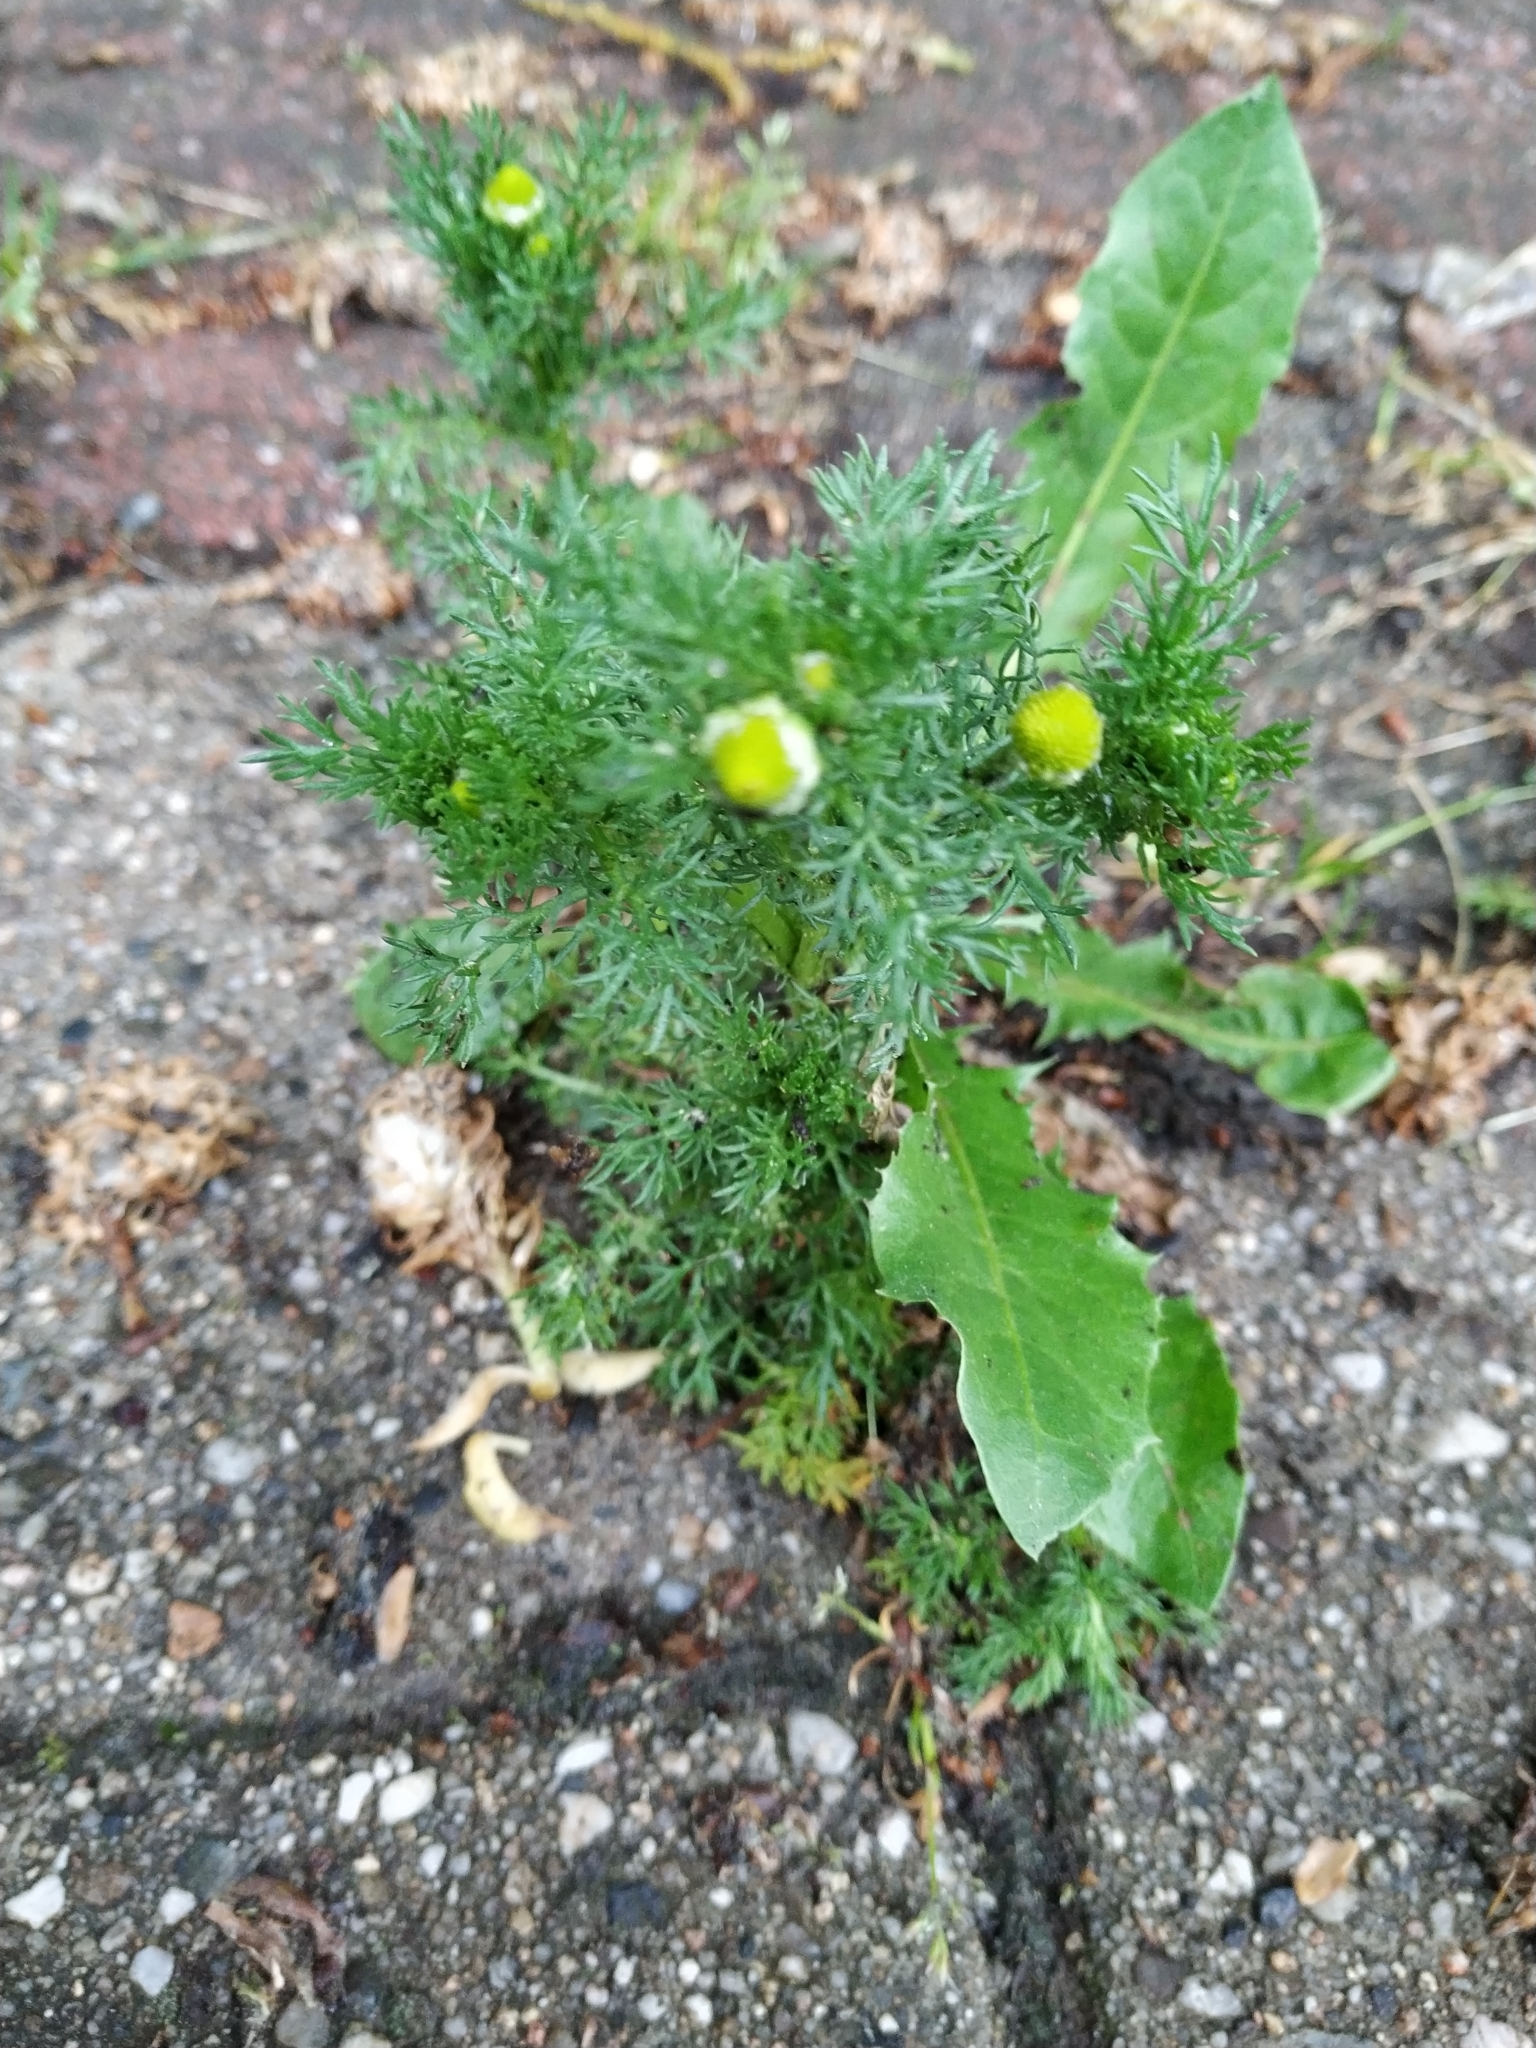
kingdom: Plantae
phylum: Tracheophyta
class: Magnoliopsida
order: Asterales
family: Asteraceae
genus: Matricaria
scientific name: Matricaria discoidea
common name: Disc mayweed
